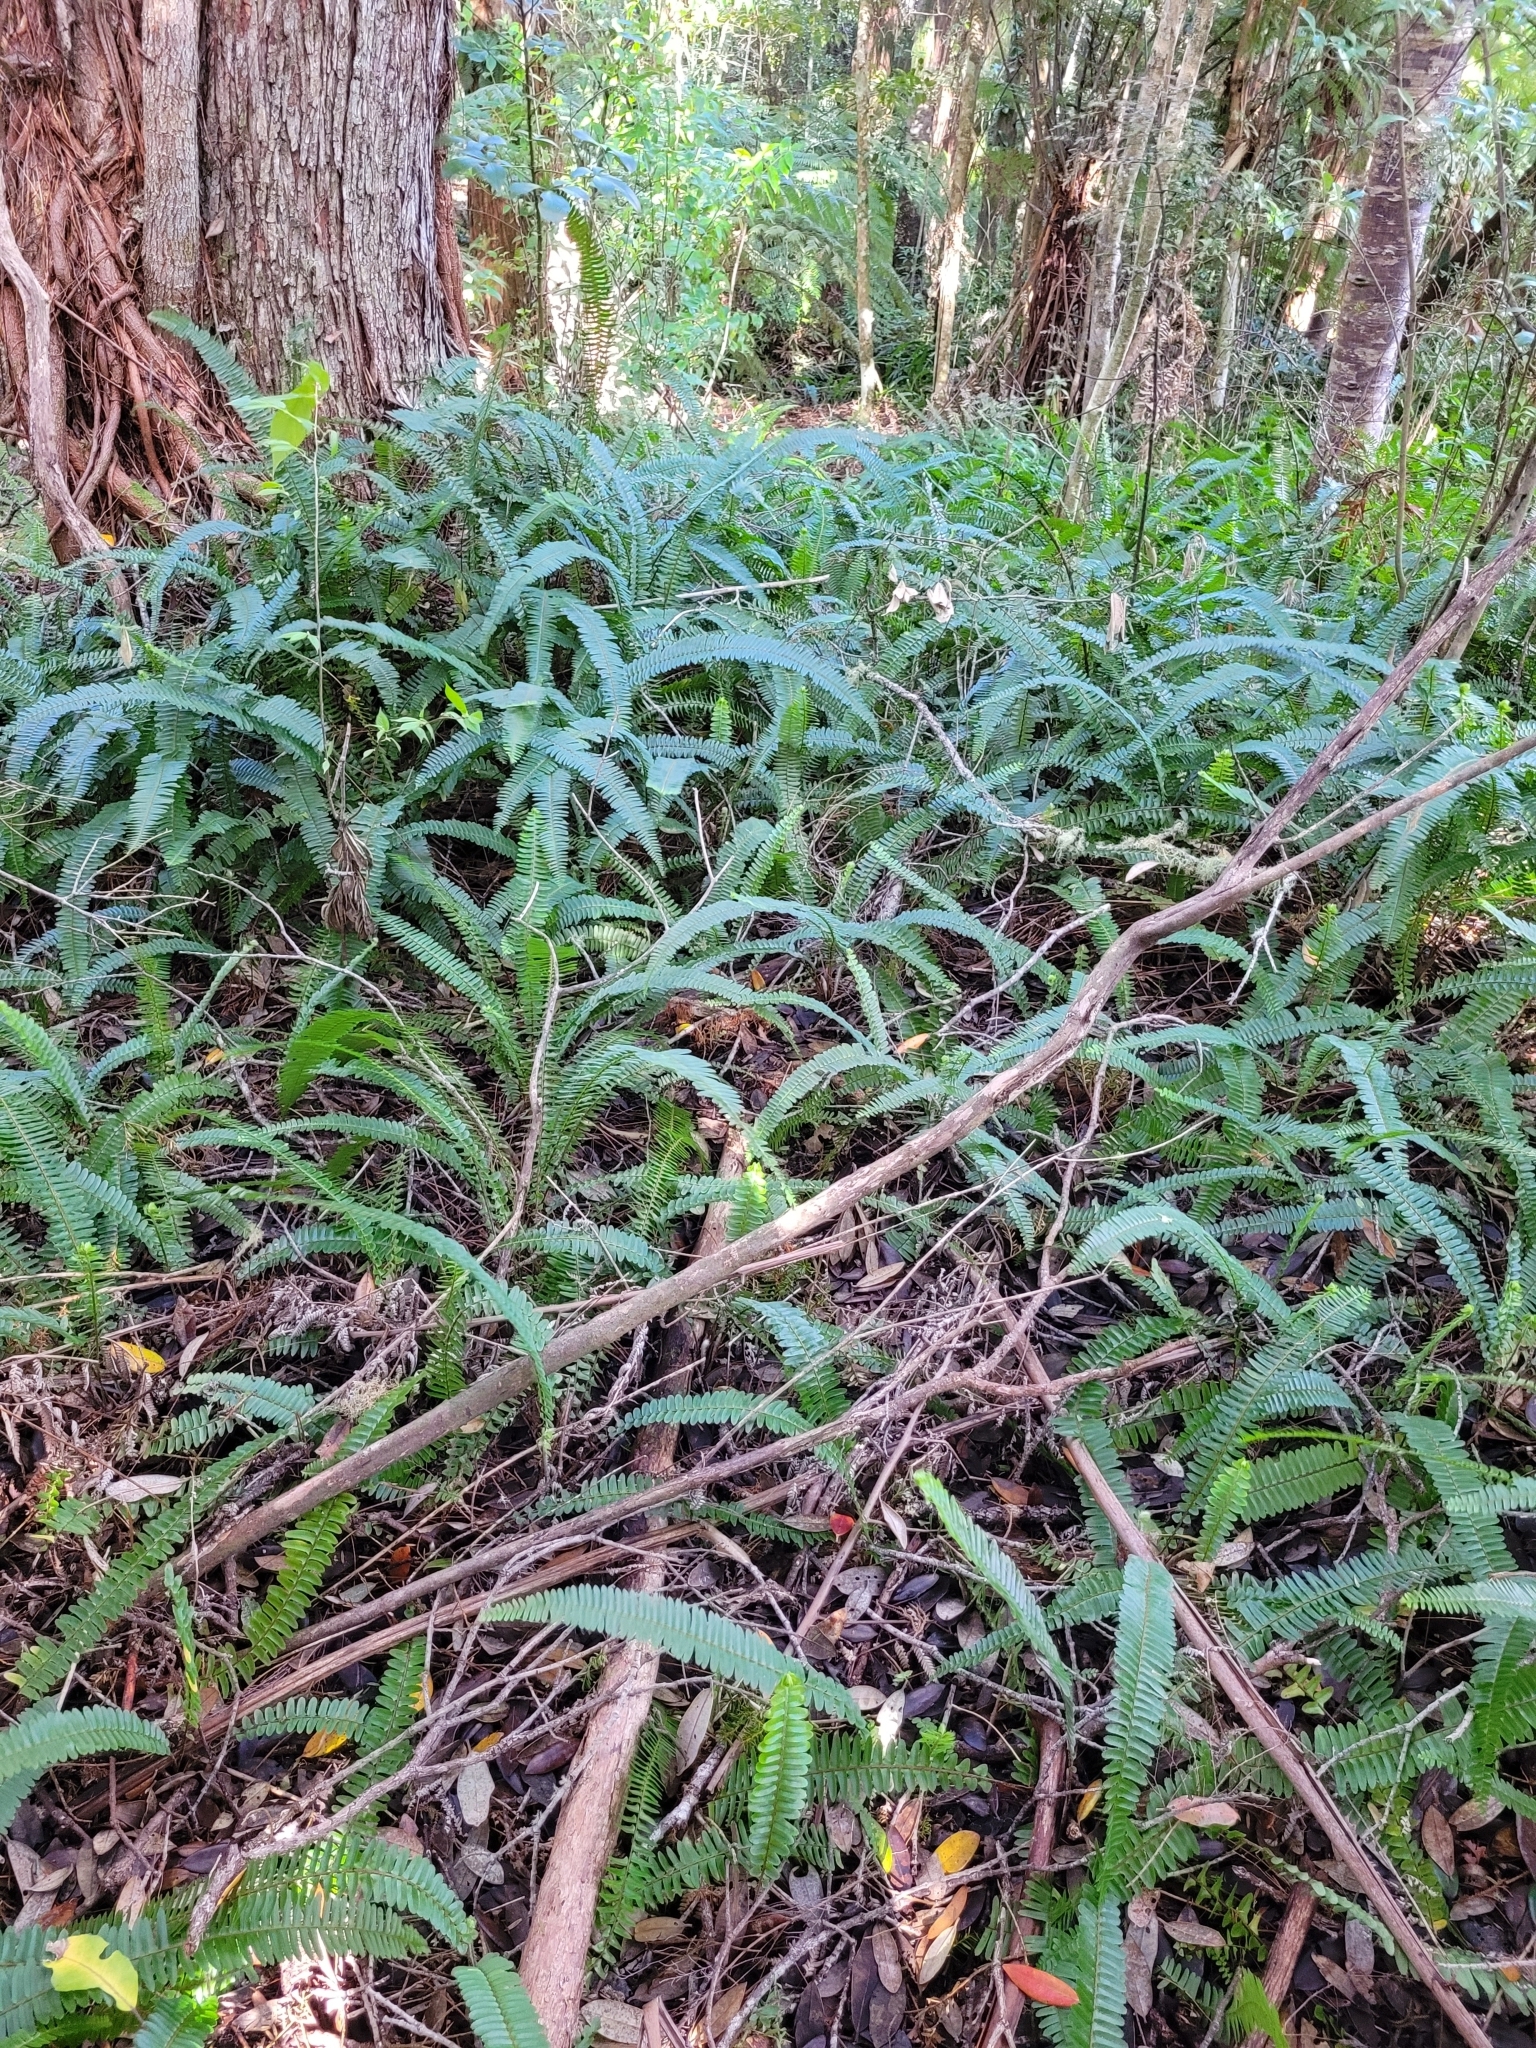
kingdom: Plantae
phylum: Tracheophyta
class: Polypodiopsida
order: Polypodiales
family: Nephrolepidaceae
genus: Nephrolepis
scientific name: Nephrolepis cordifolia
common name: Narrow swordfern
